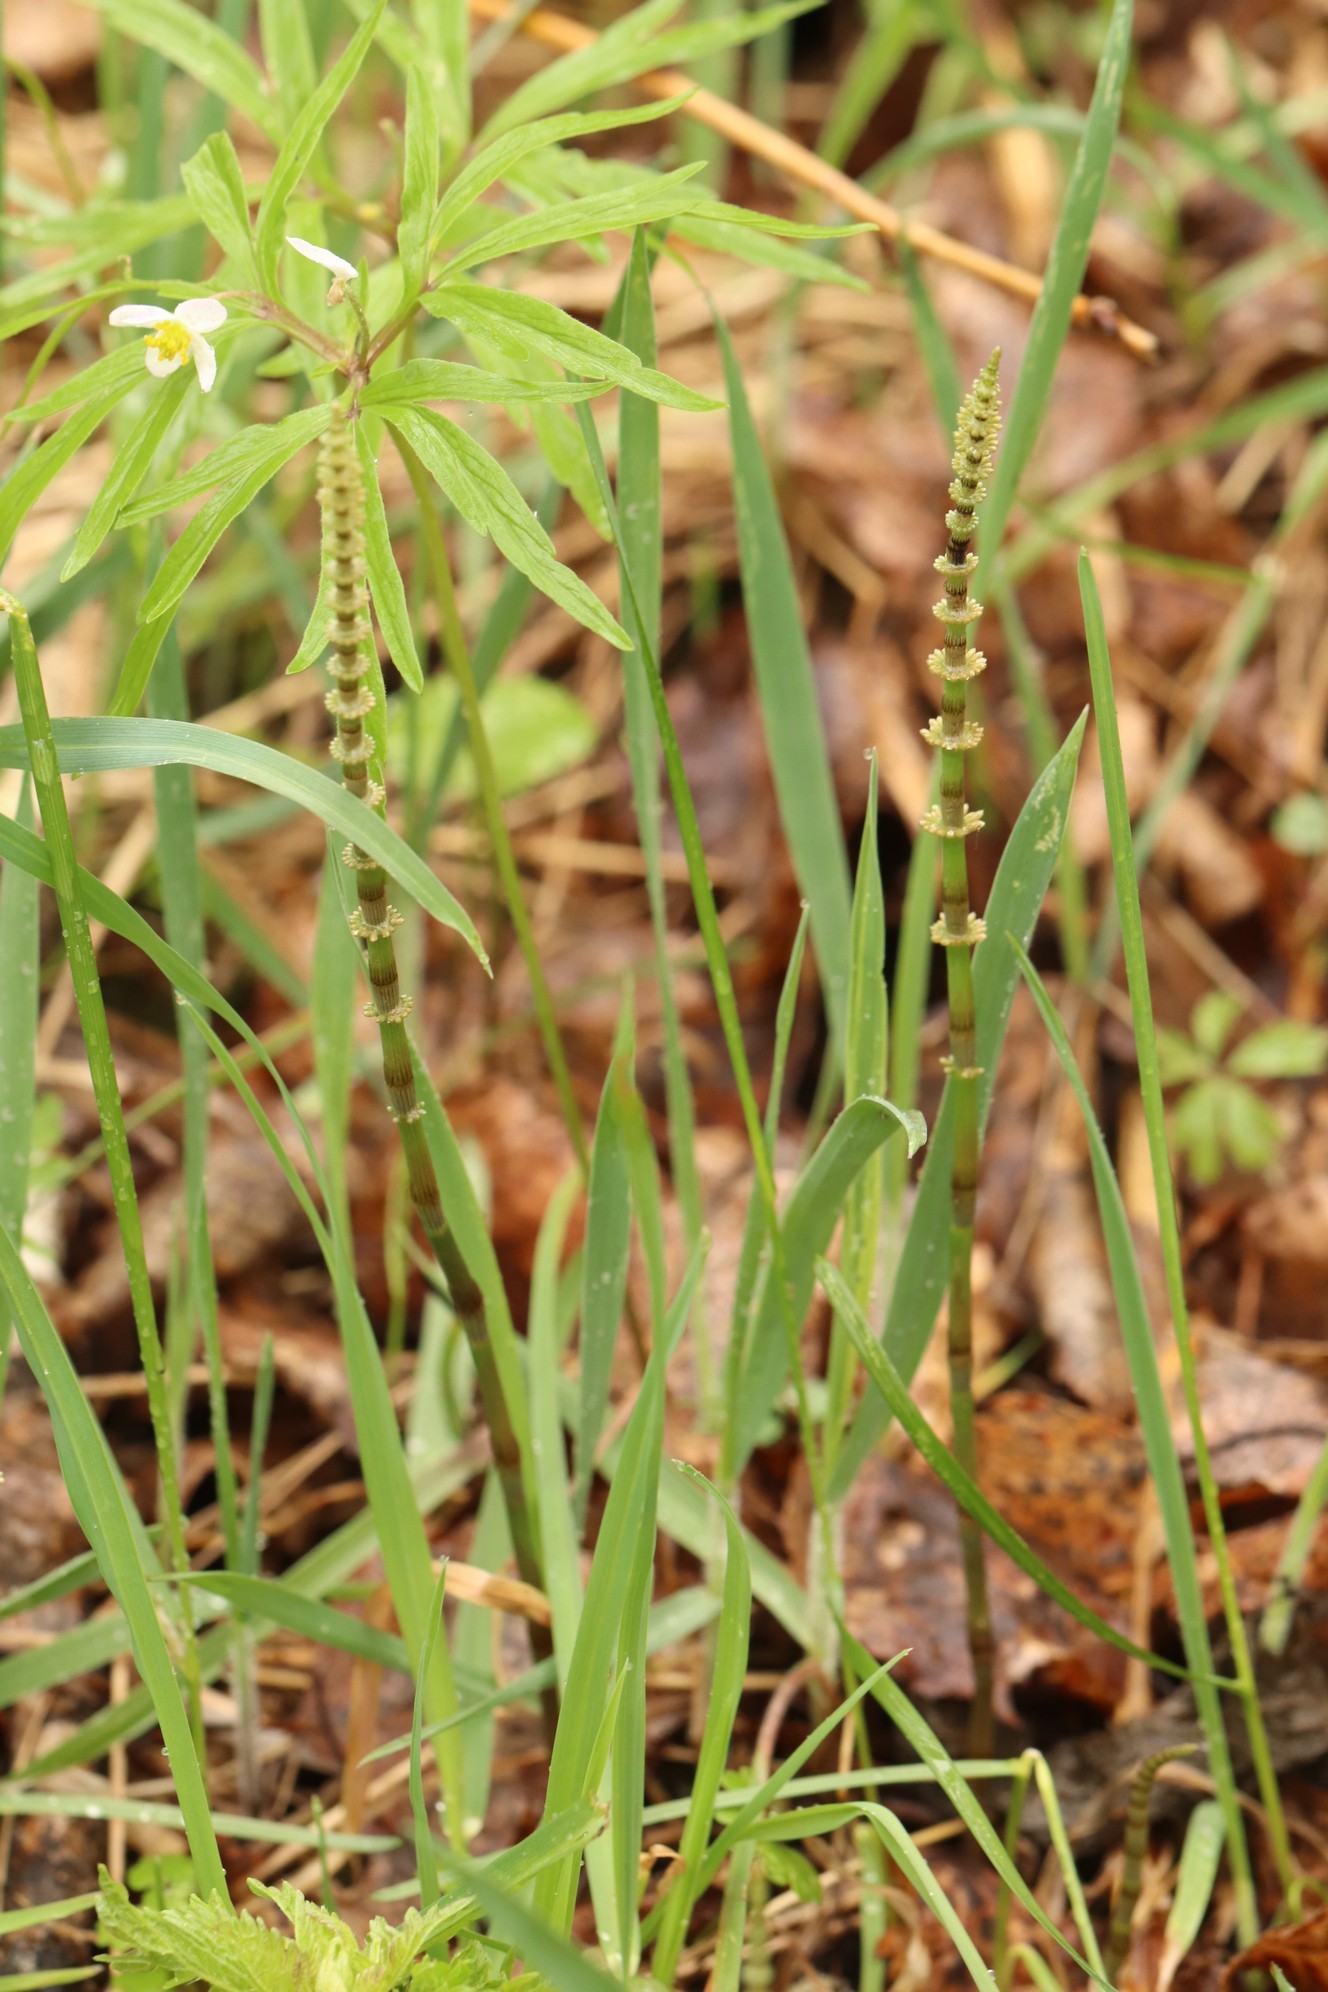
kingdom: Plantae
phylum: Tracheophyta
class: Polypodiopsida
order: Equisetales
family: Equisetaceae
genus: Equisetum
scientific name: Equisetum pratense
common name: Meadow horsetail
